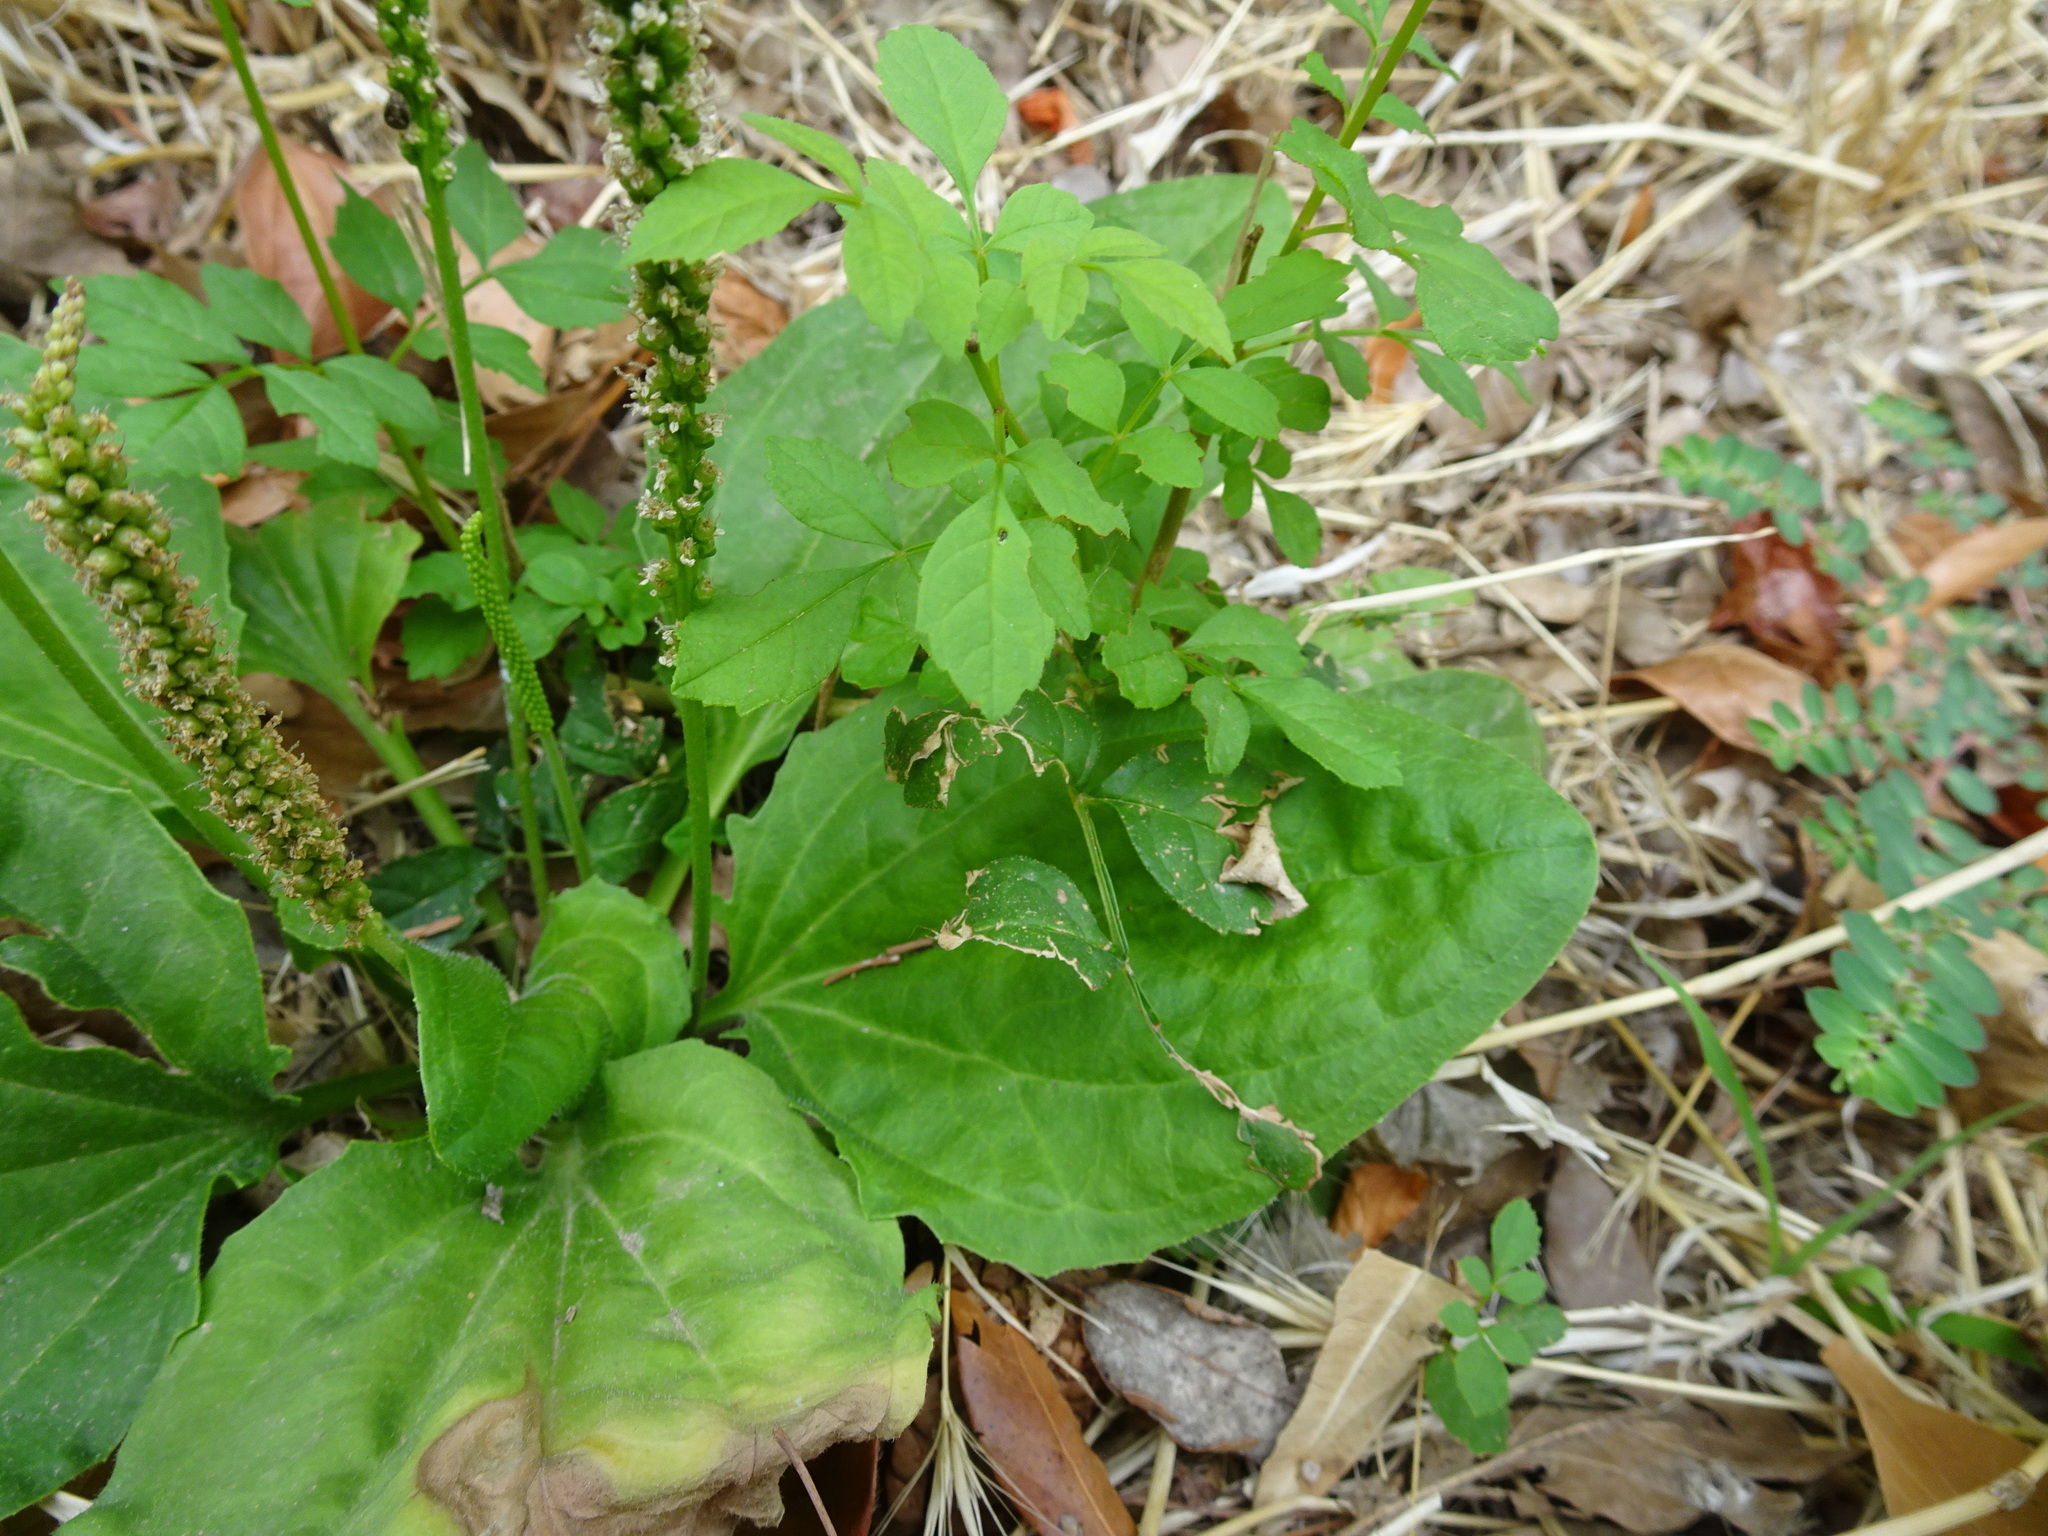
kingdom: Plantae
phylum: Tracheophyta
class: Magnoliopsida
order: Lamiales
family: Plantaginaceae
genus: Plantago
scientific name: Plantago major
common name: Common plantain
